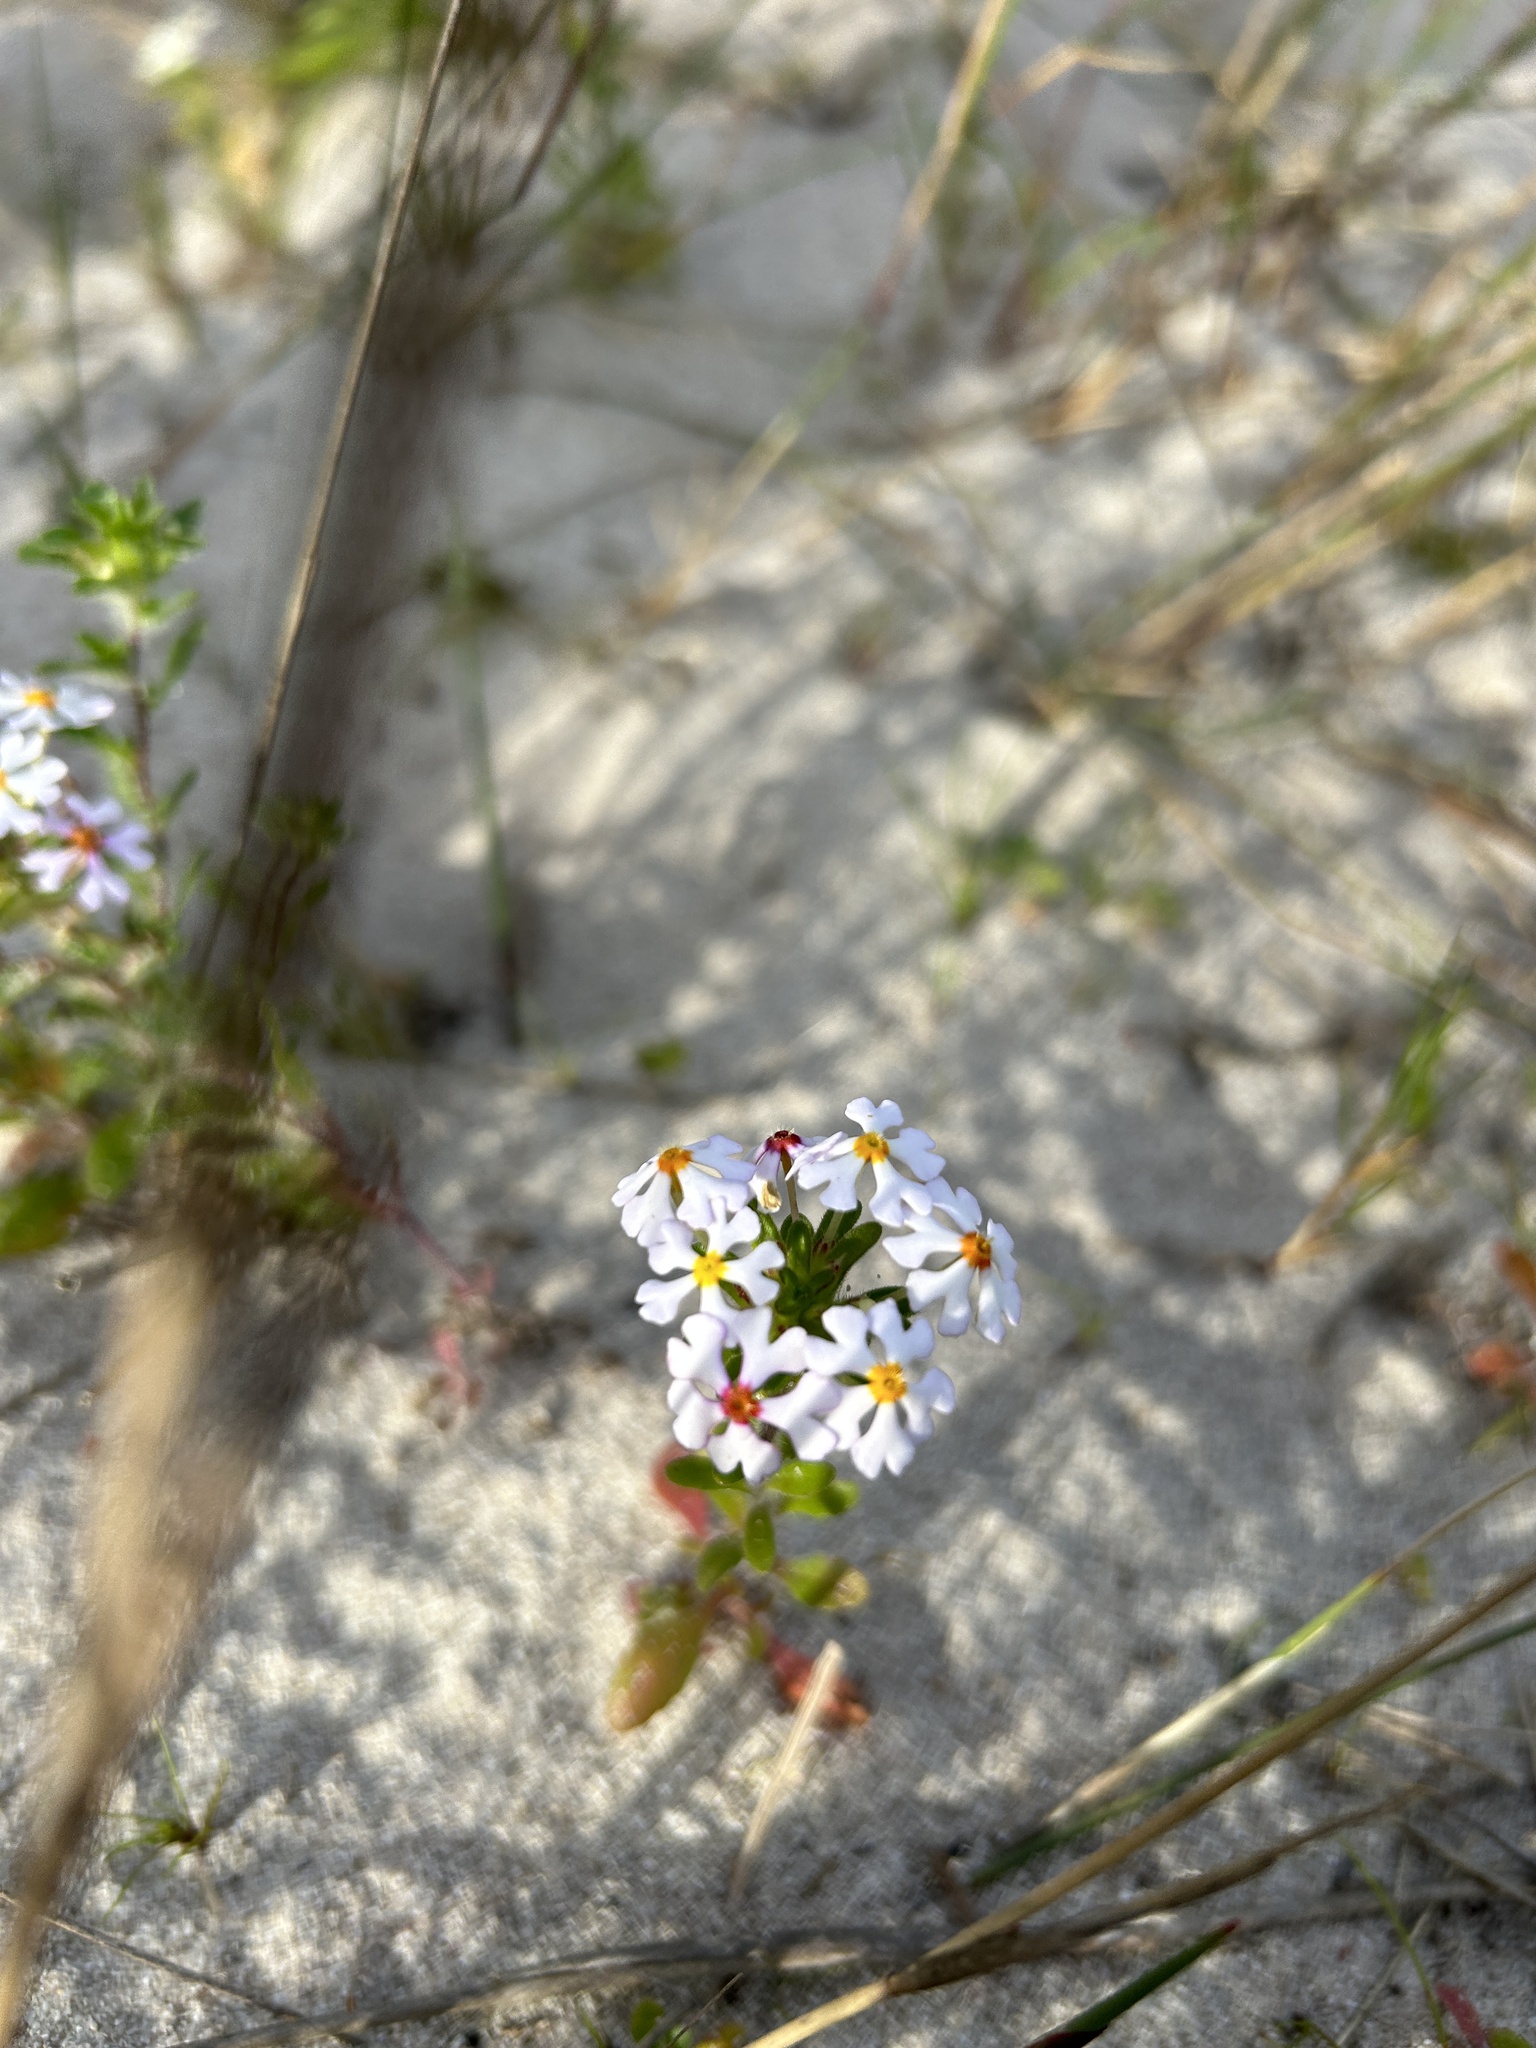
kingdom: Plantae
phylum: Tracheophyta
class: Magnoliopsida
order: Lamiales
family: Scrophulariaceae
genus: Zaluzianskya
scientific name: Zaluzianskya villosa
